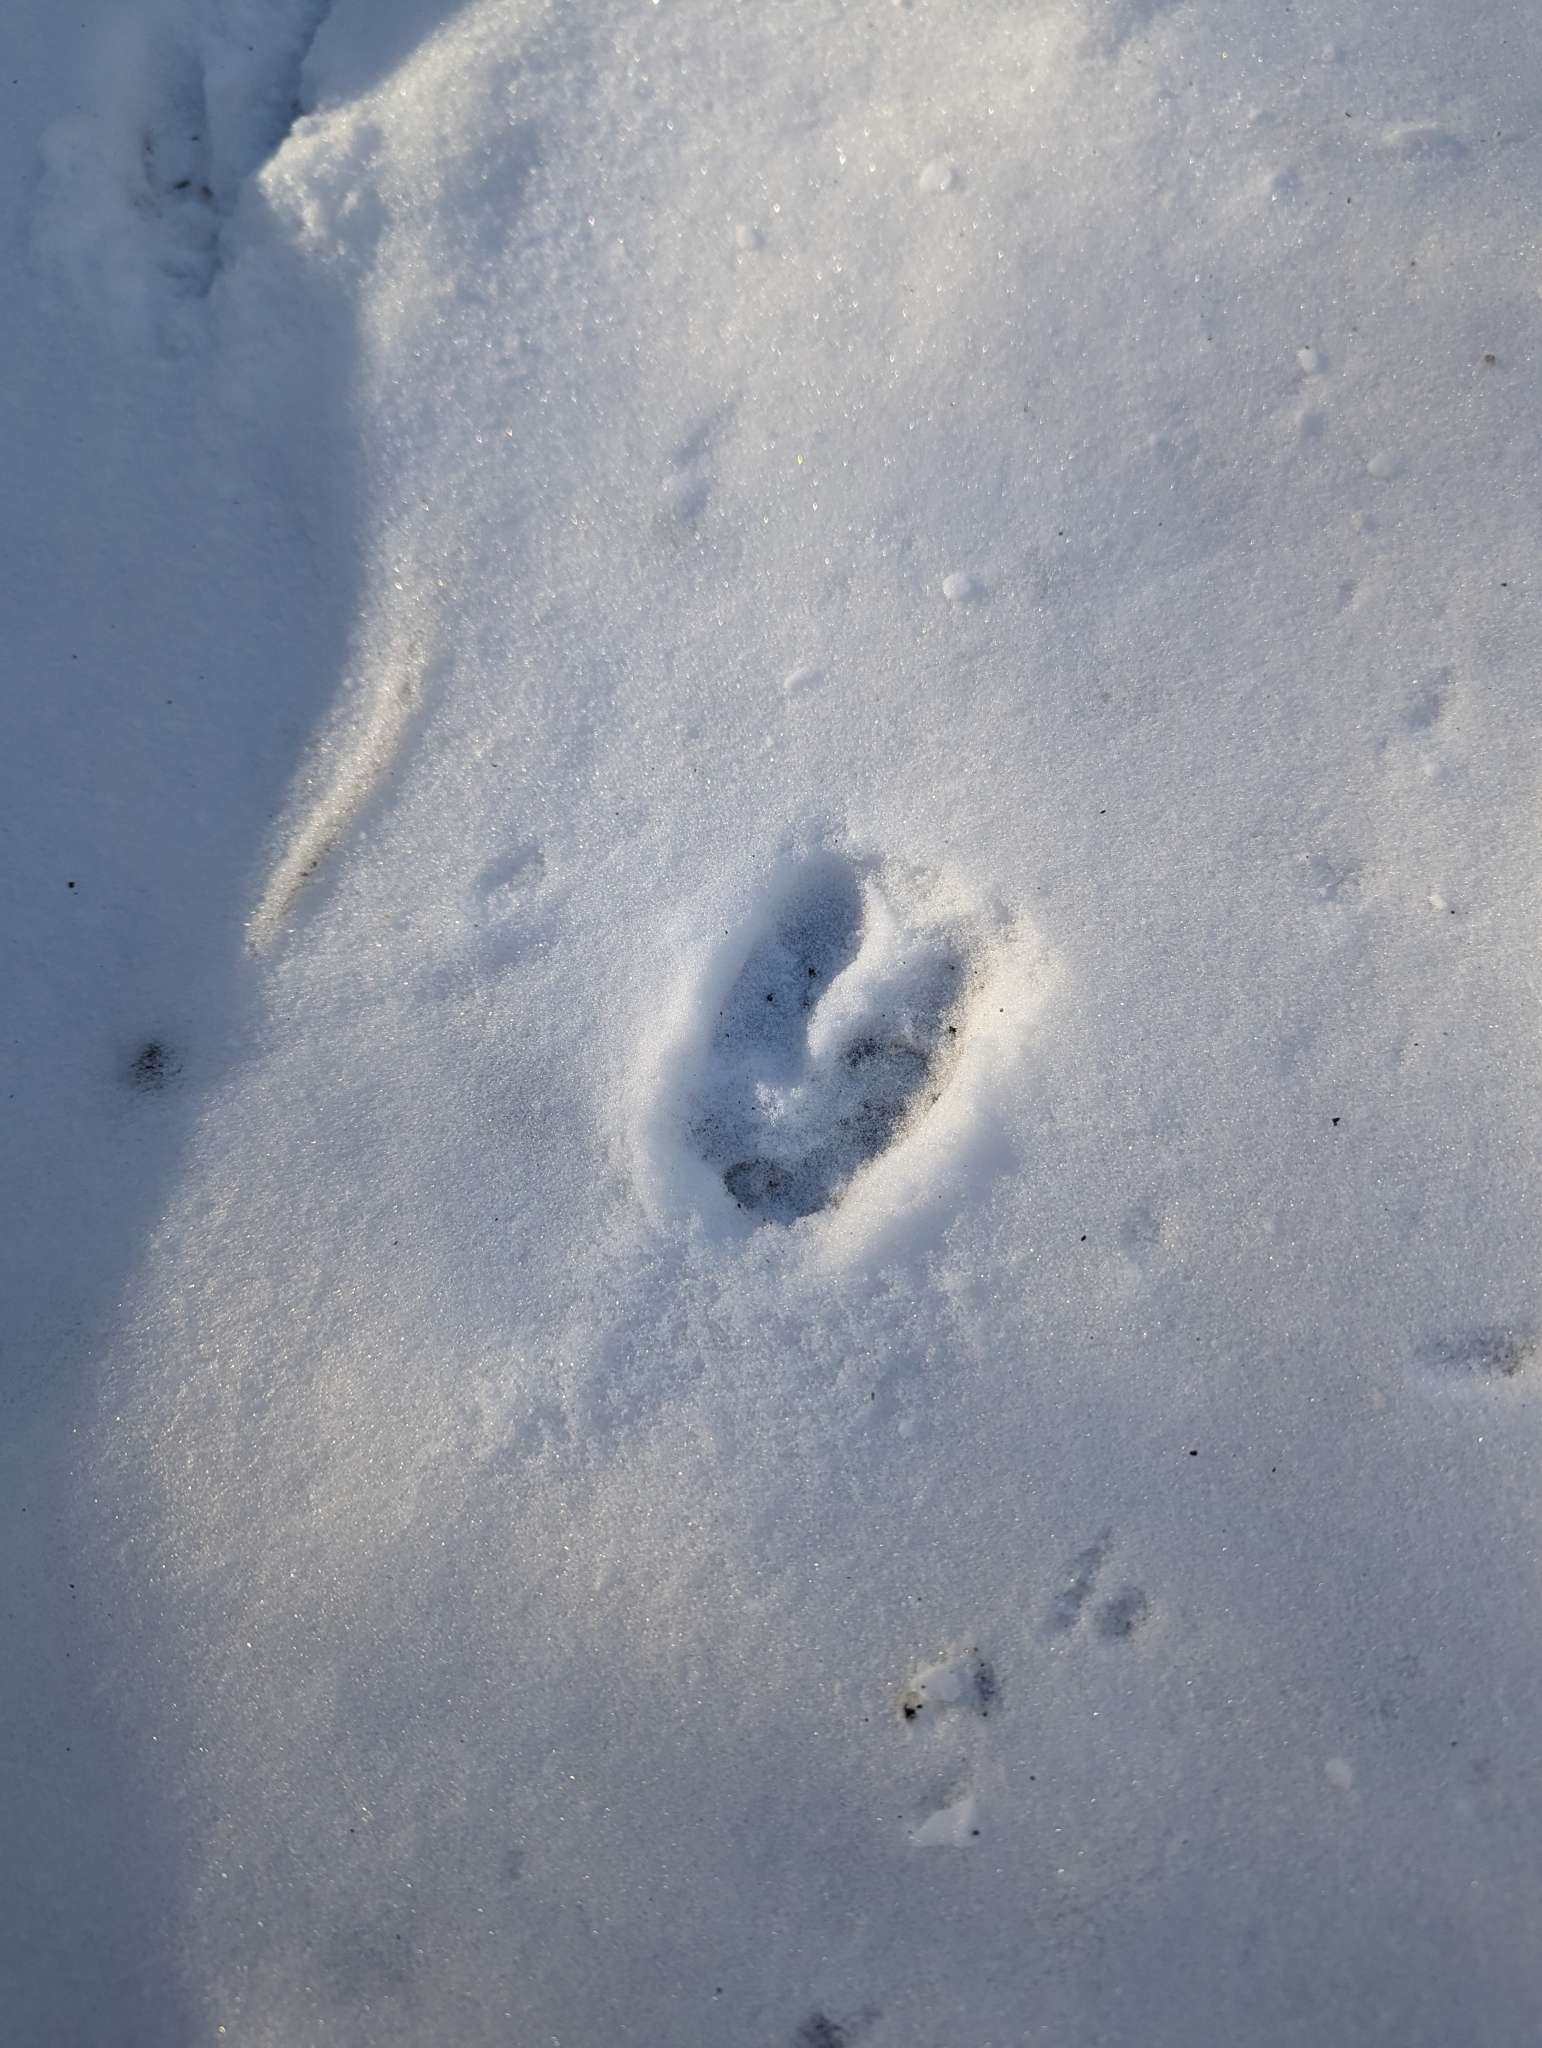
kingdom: Animalia
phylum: Chordata
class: Mammalia
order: Artiodactyla
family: Cervidae
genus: Odocoileus
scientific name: Odocoileus virginianus
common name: White-tailed deer
